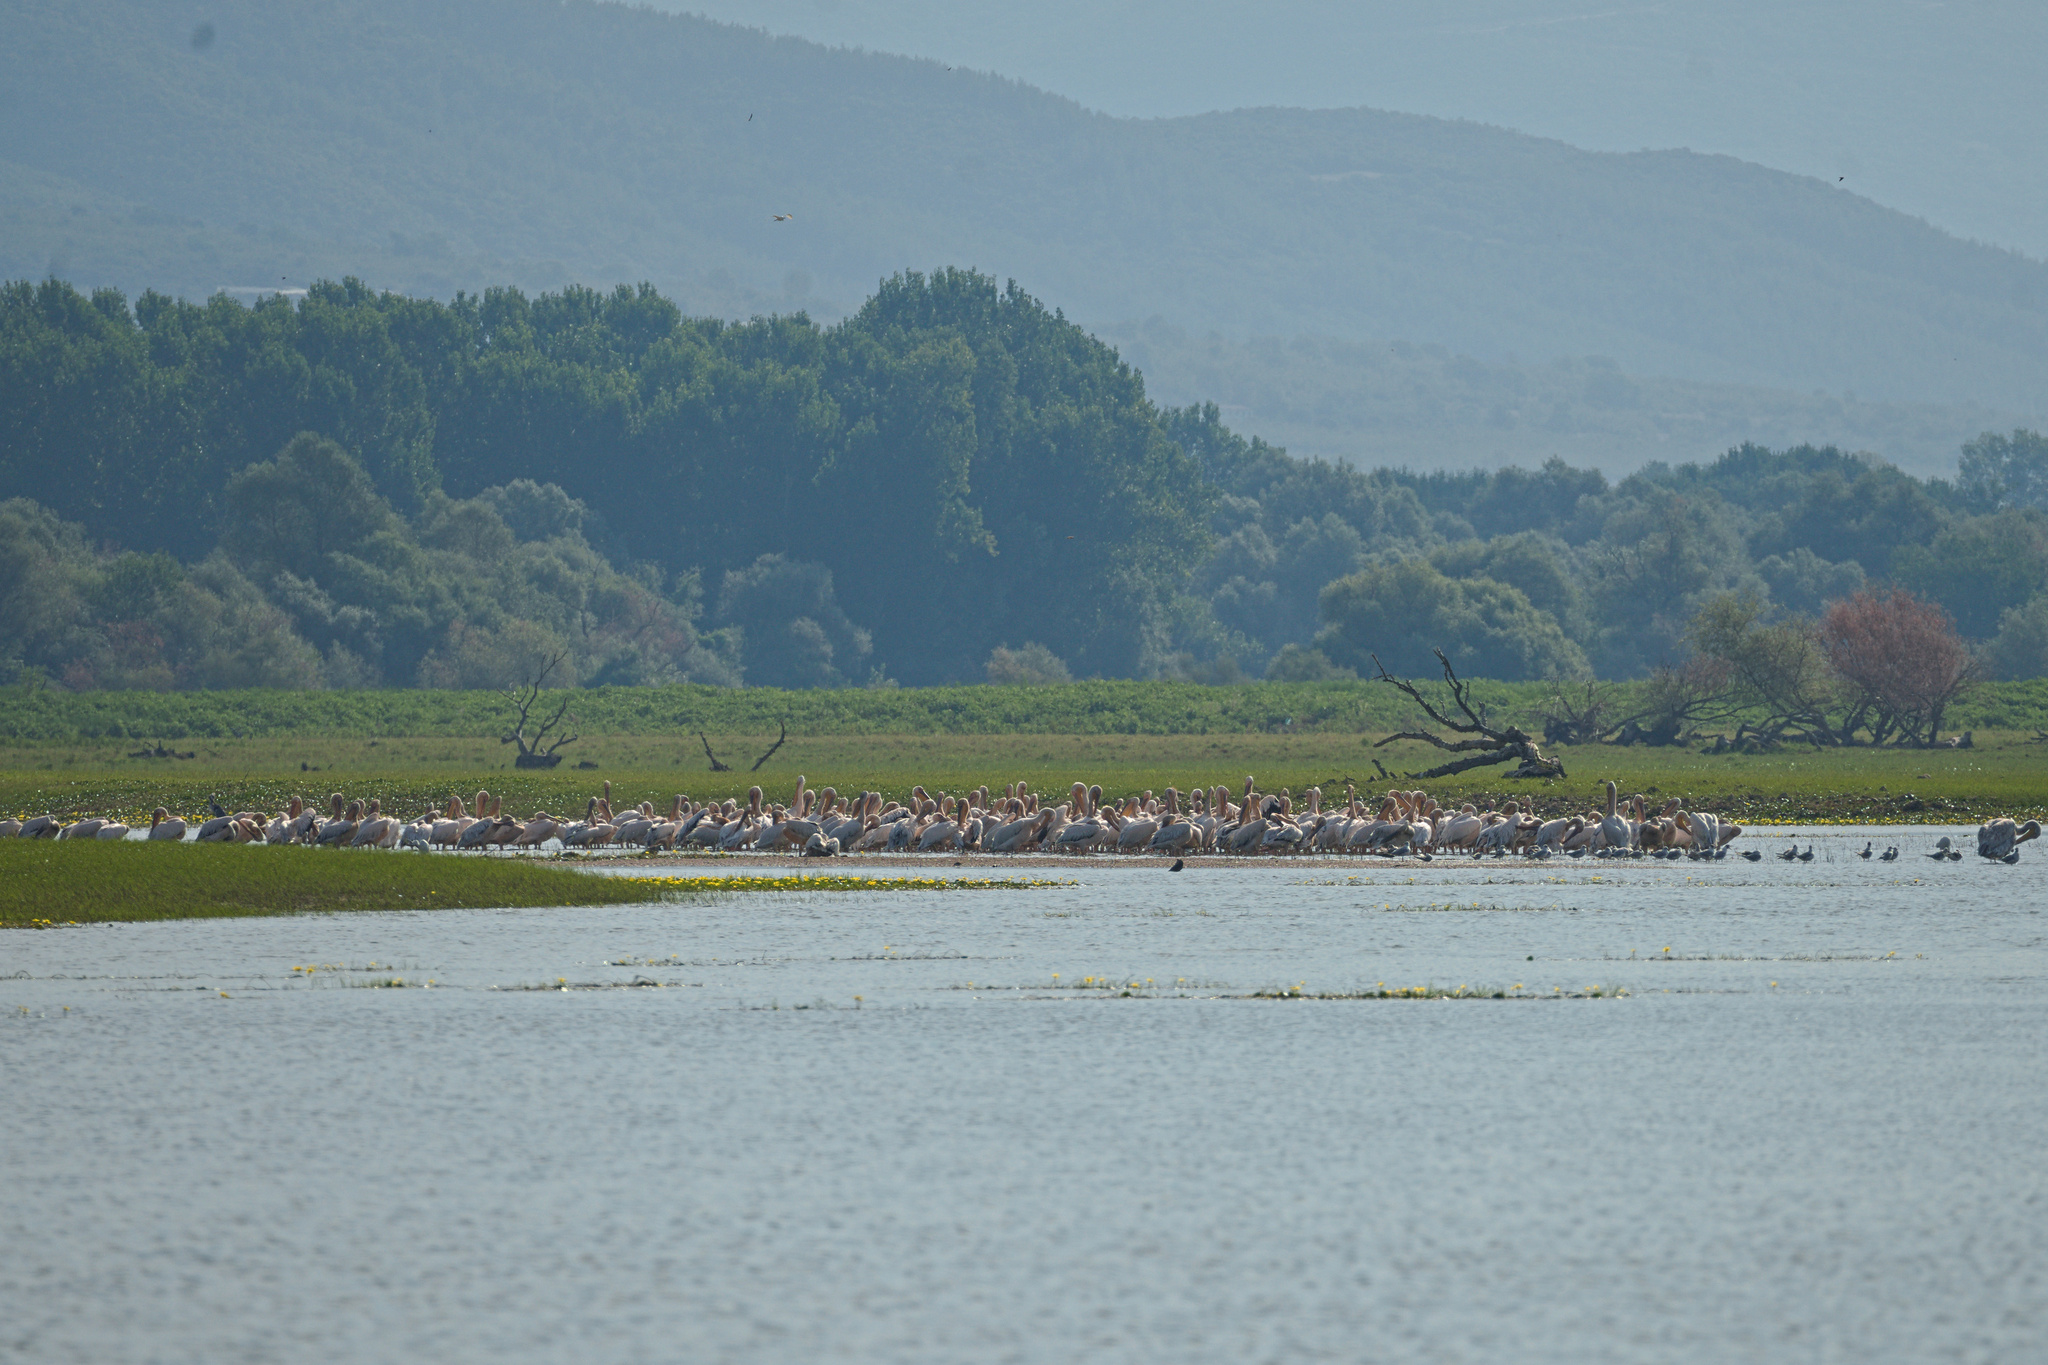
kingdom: Animalia
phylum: Chordata
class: Aves
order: Pelecaniformes
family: Pelecanidae
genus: Pelecanus
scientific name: Pelecanus onocrotalus
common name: Great white pelican
